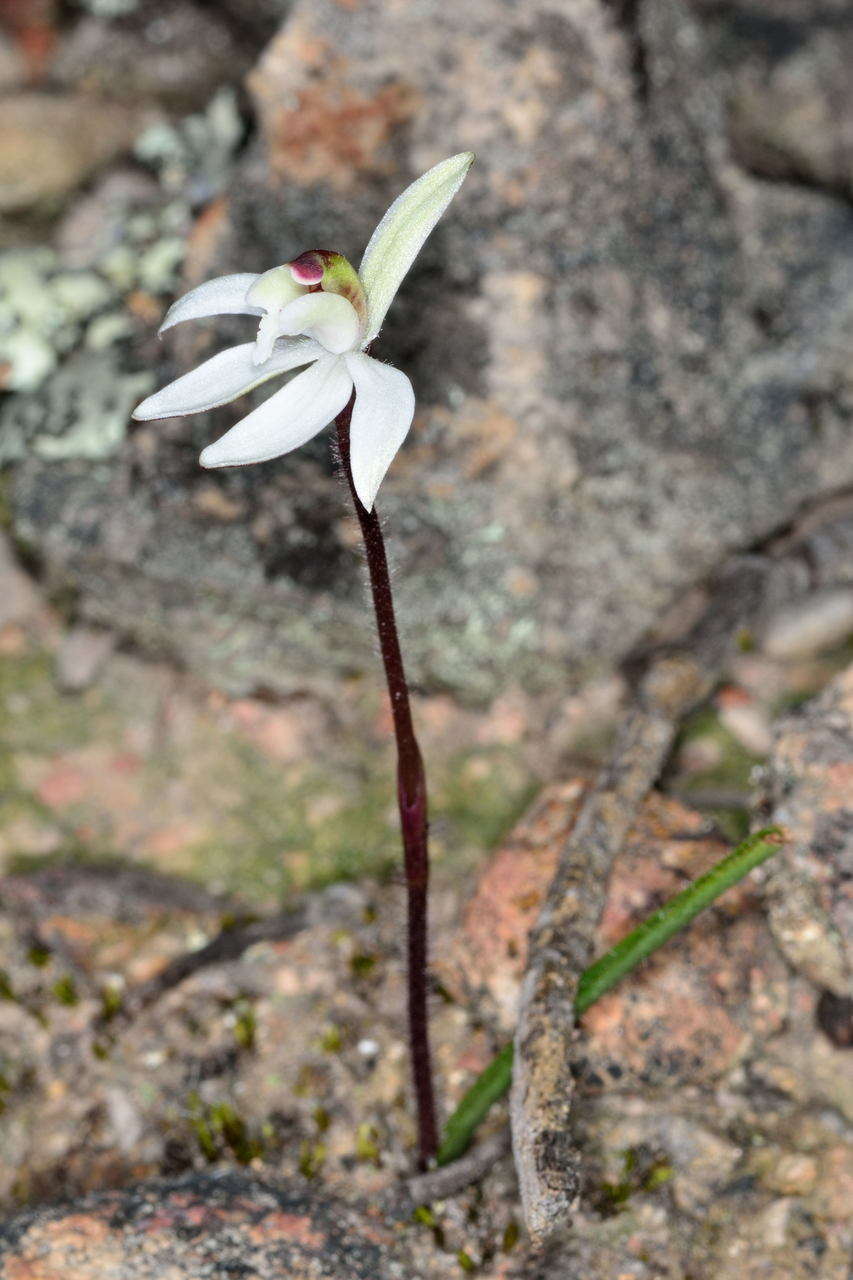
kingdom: Plantae
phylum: Tracheophyta
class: Liliopsida
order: Asparagales
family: Orchidaceae
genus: Caladenia
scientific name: Caladenia fuscata
